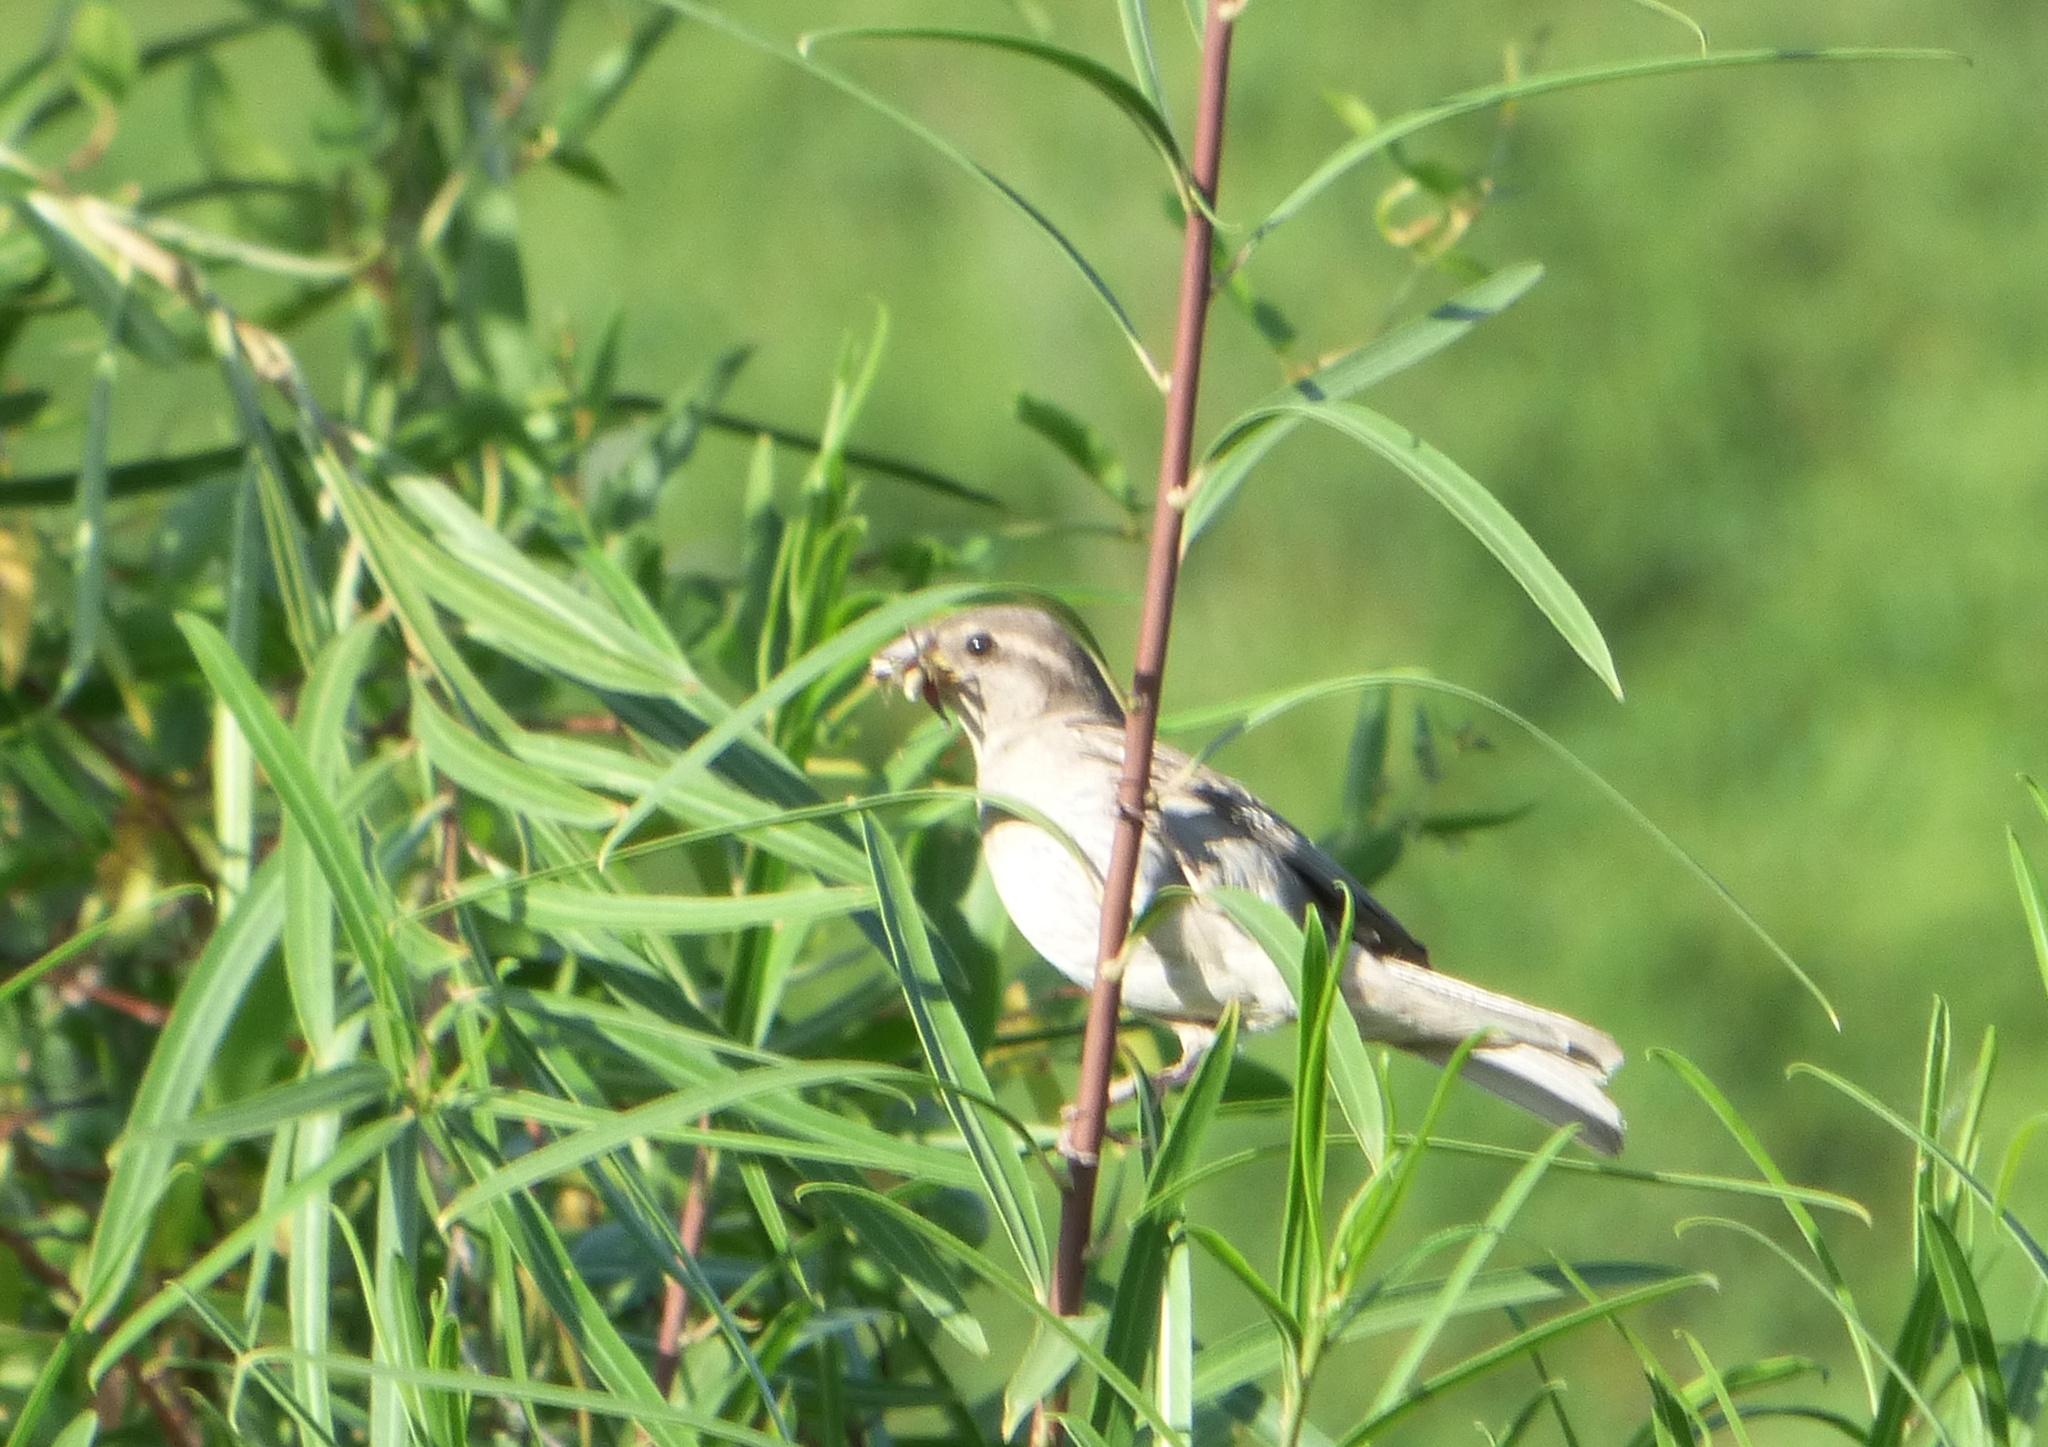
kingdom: Animalia
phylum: Chordata
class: Aves
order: Passeriformes
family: Passeridae
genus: Passer
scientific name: Passer domesticus
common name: House sparrow
